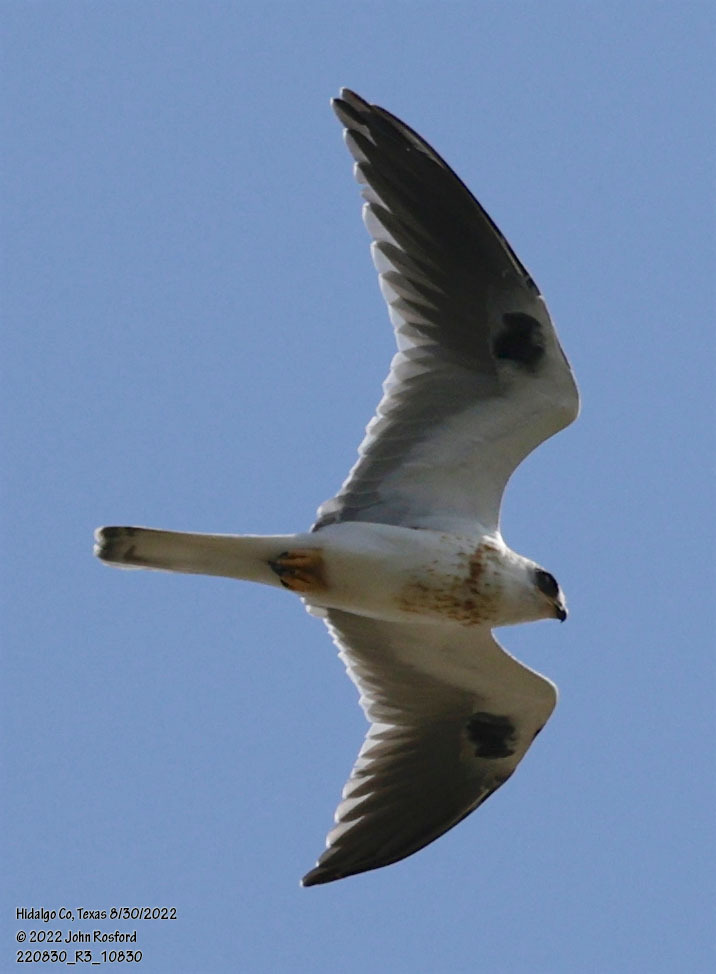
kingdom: Animalia
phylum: Chordata
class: Aves
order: Accipitriformes
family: Accipitridae
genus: Elanus
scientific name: Elanus leucurus
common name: White-tailed kite
